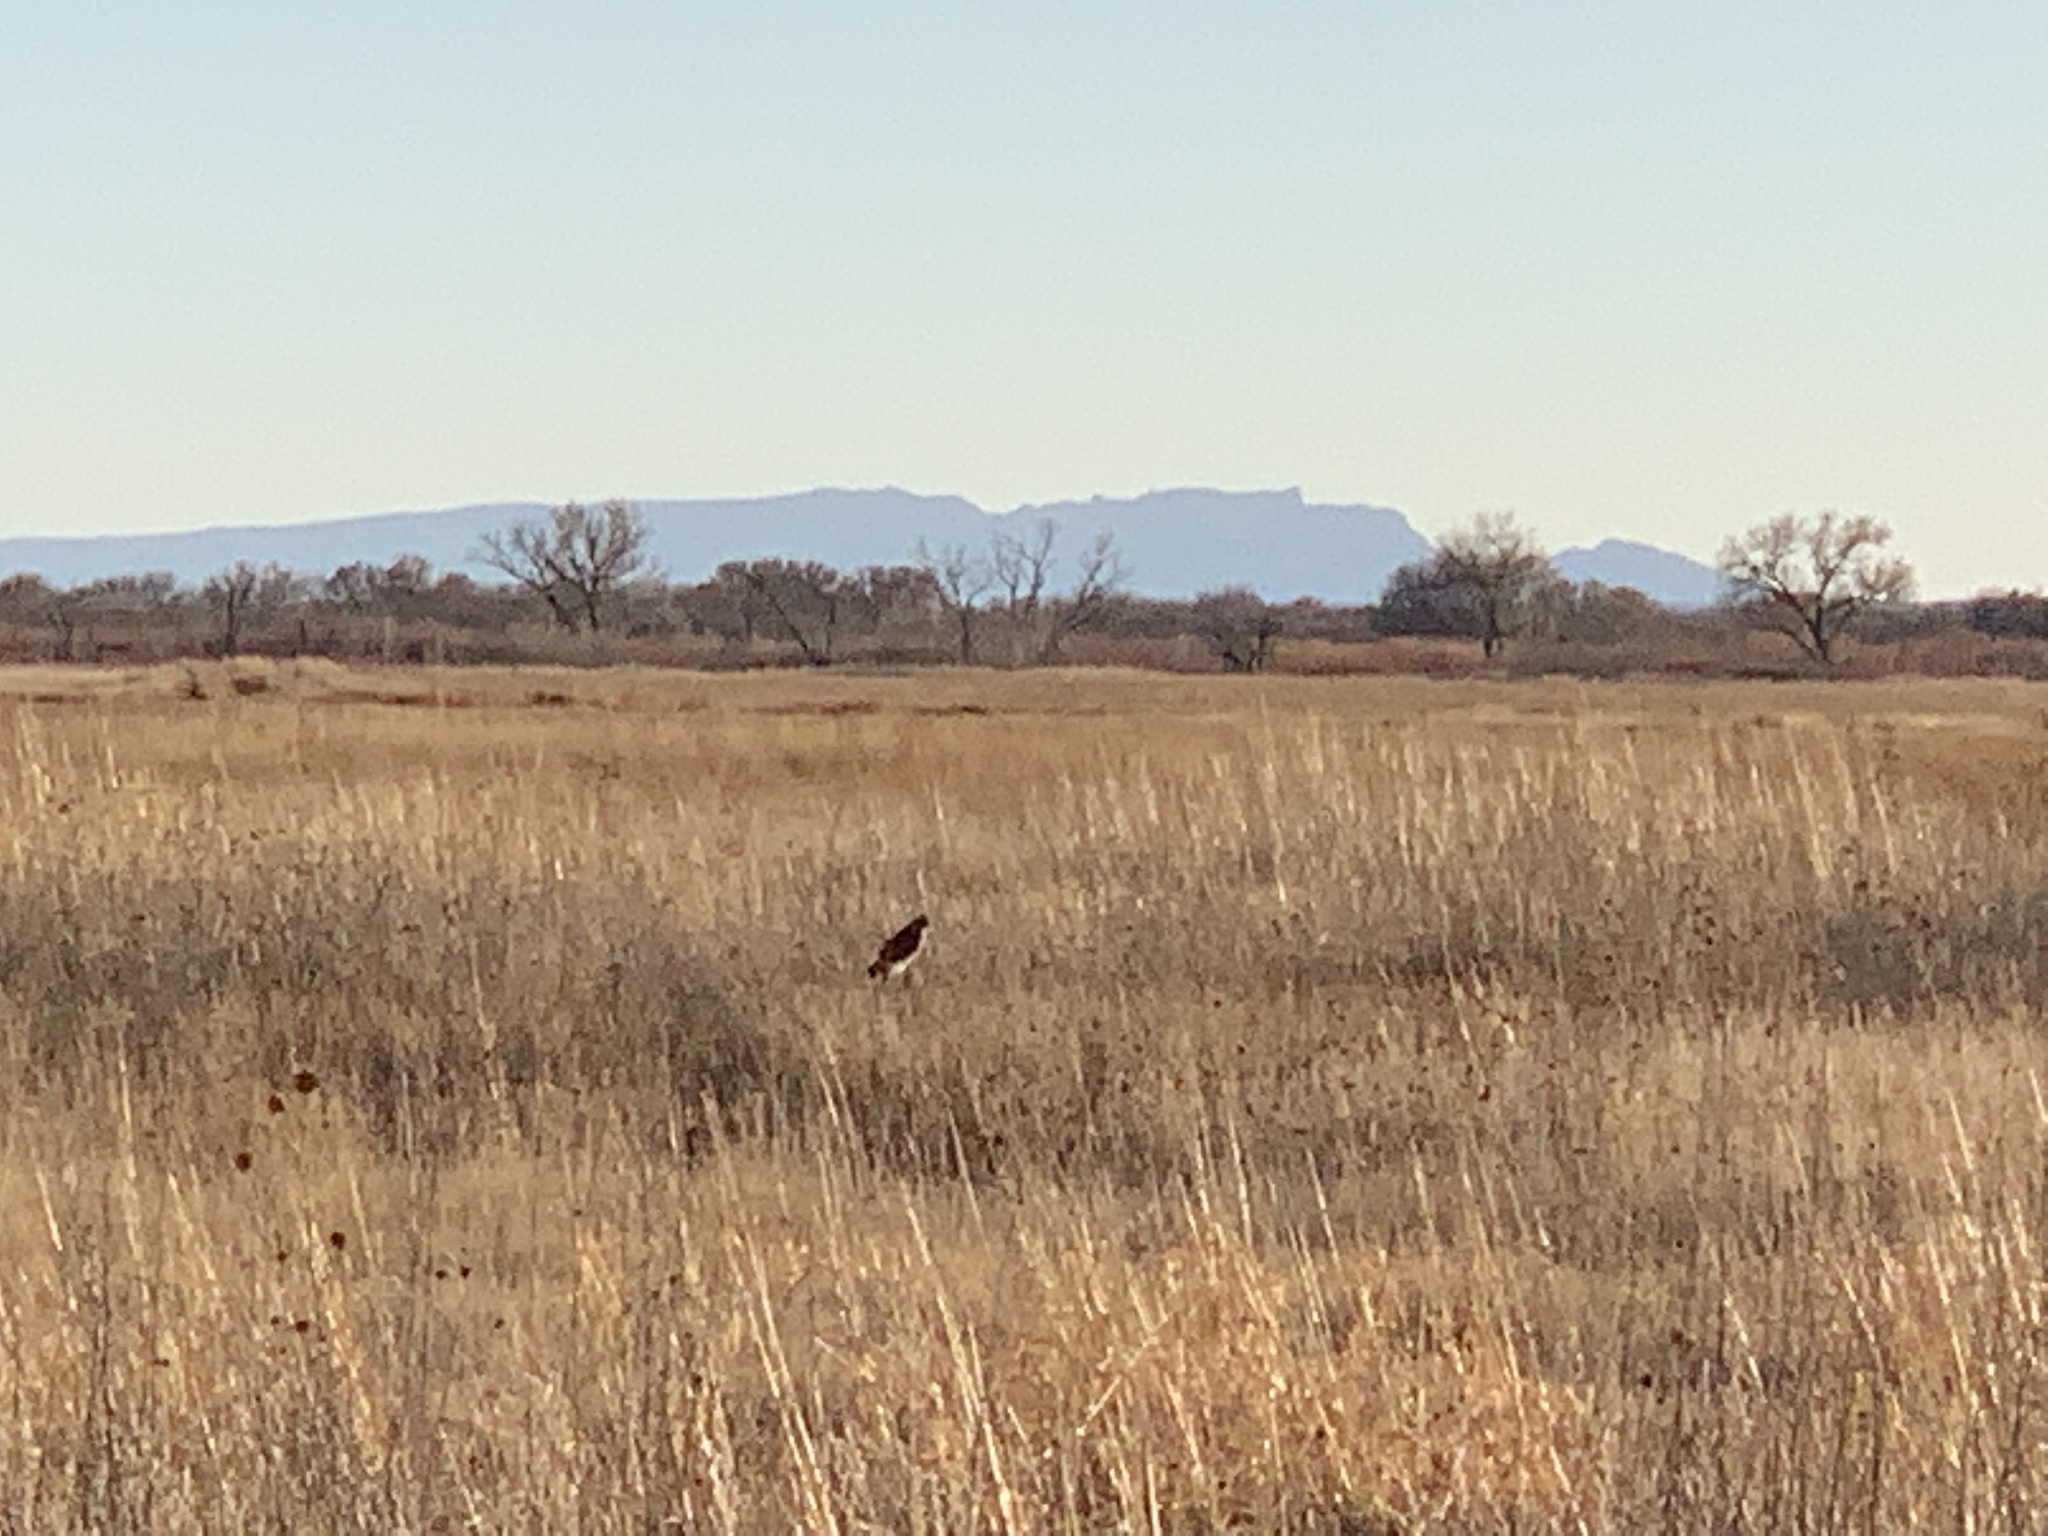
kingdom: Animalia
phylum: Chordata
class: Aves
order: Accipitriformes
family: Accipitridae
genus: Circus
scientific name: Circus cyaneus
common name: Hen harrier
